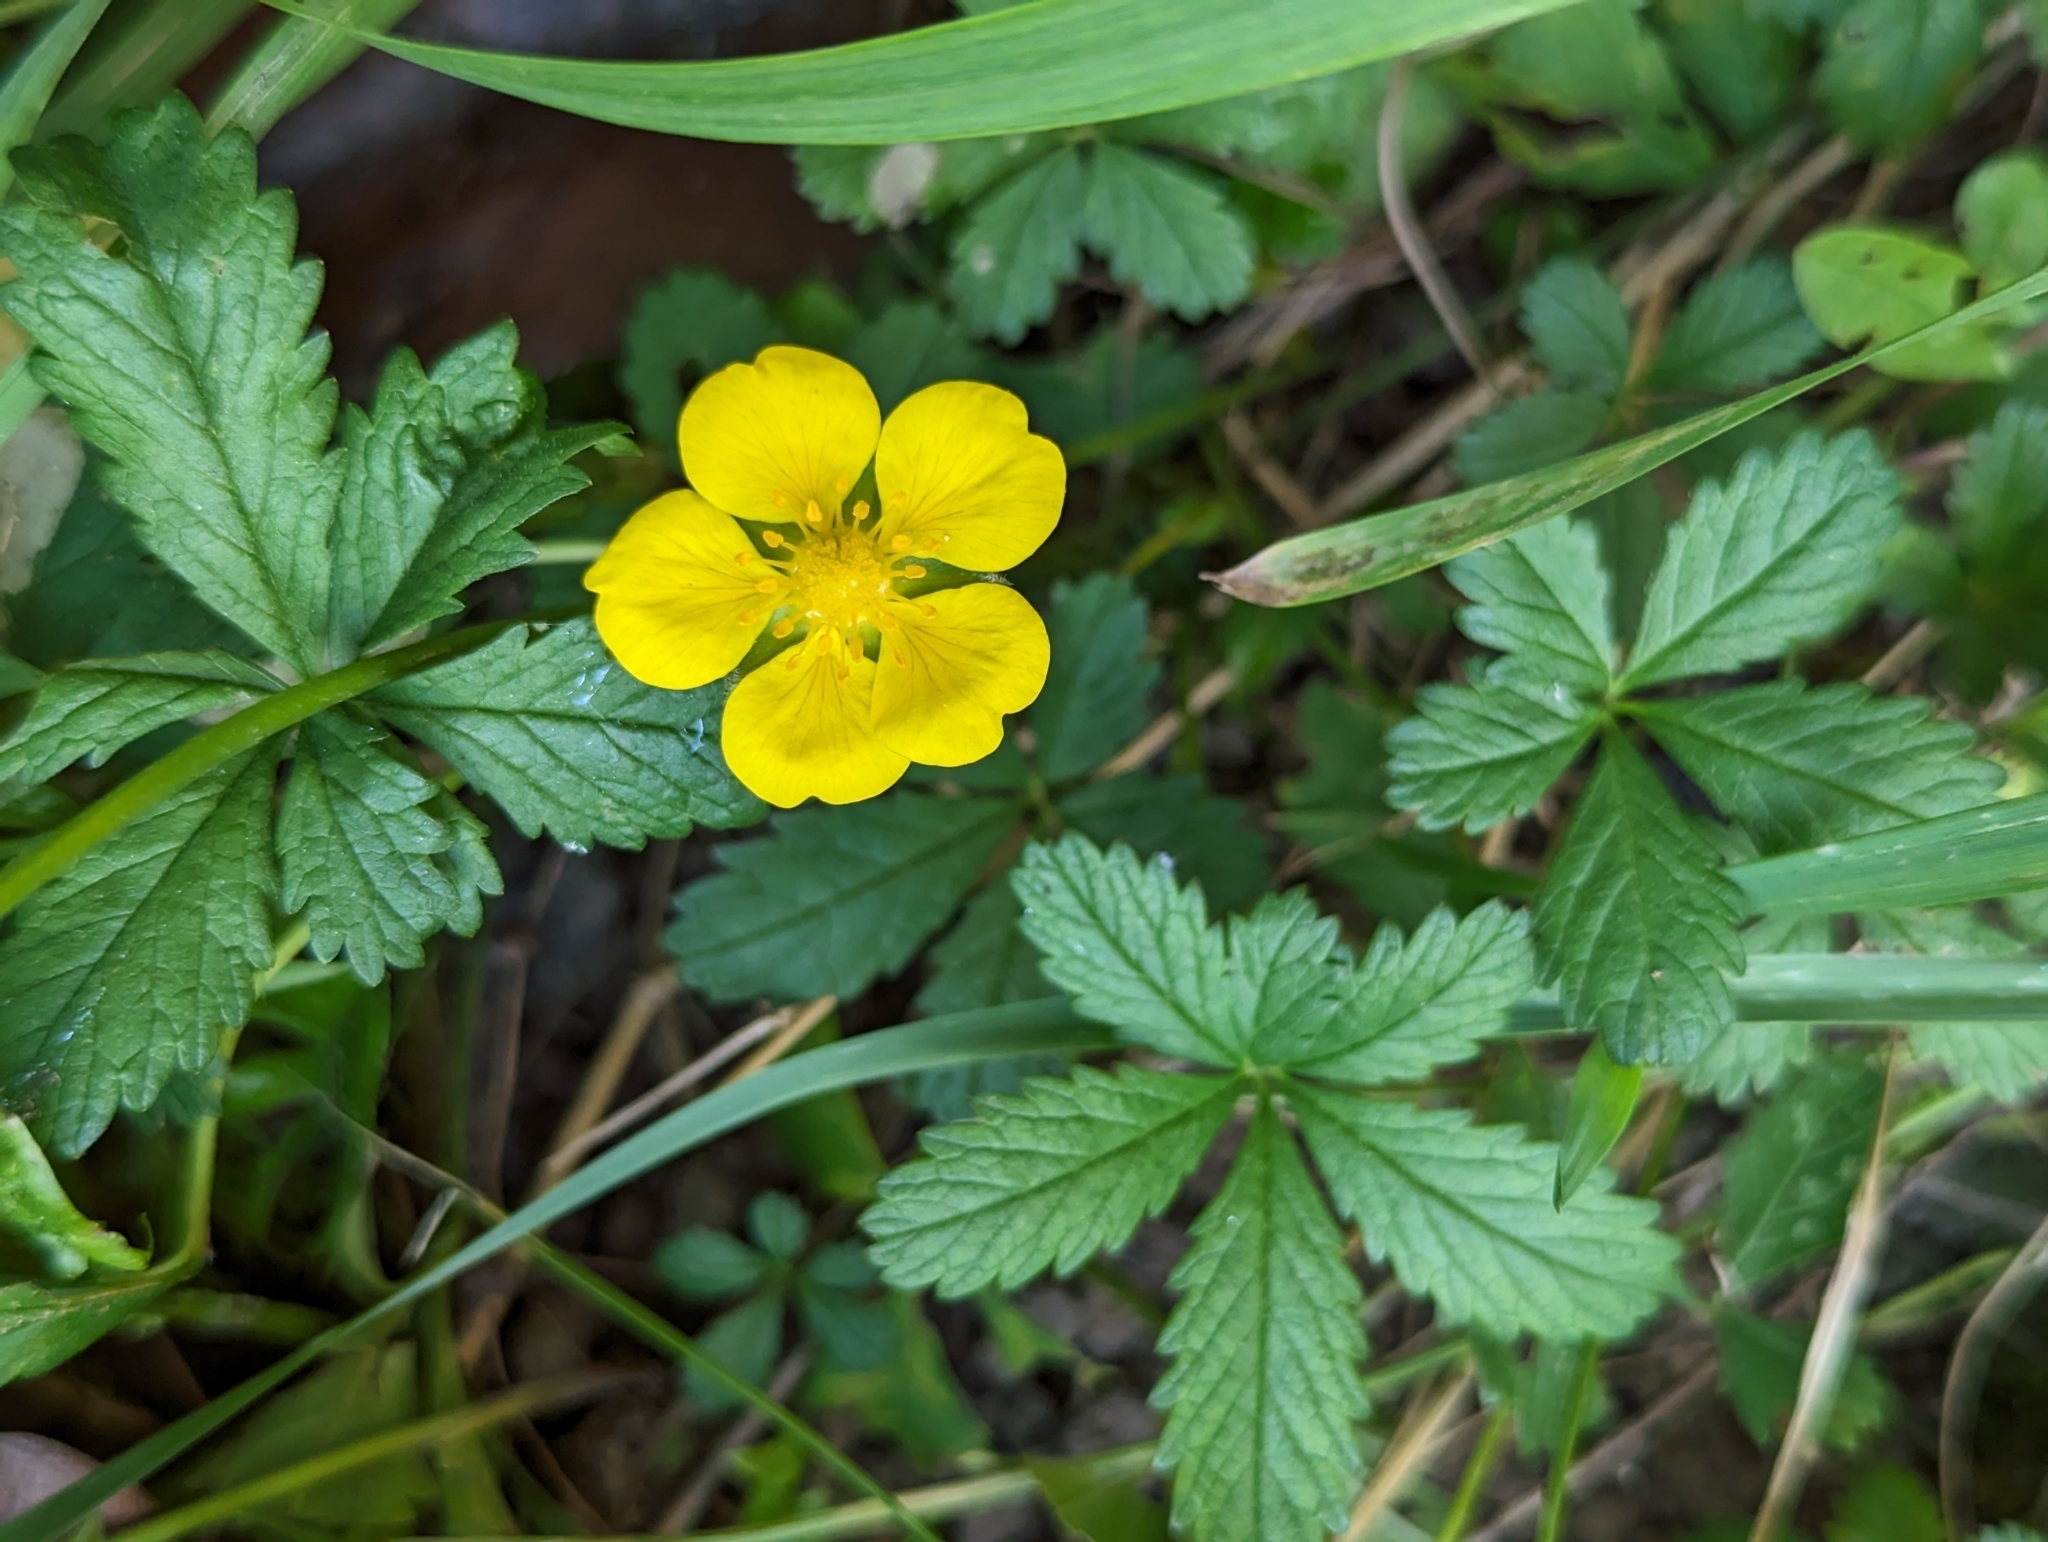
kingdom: Plantae
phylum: Tracheophyta
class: Magnoliopsida
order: Rosales
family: Rosaceae
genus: Potentilla
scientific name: Potentilla reptans
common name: Creeping cinquefoil
